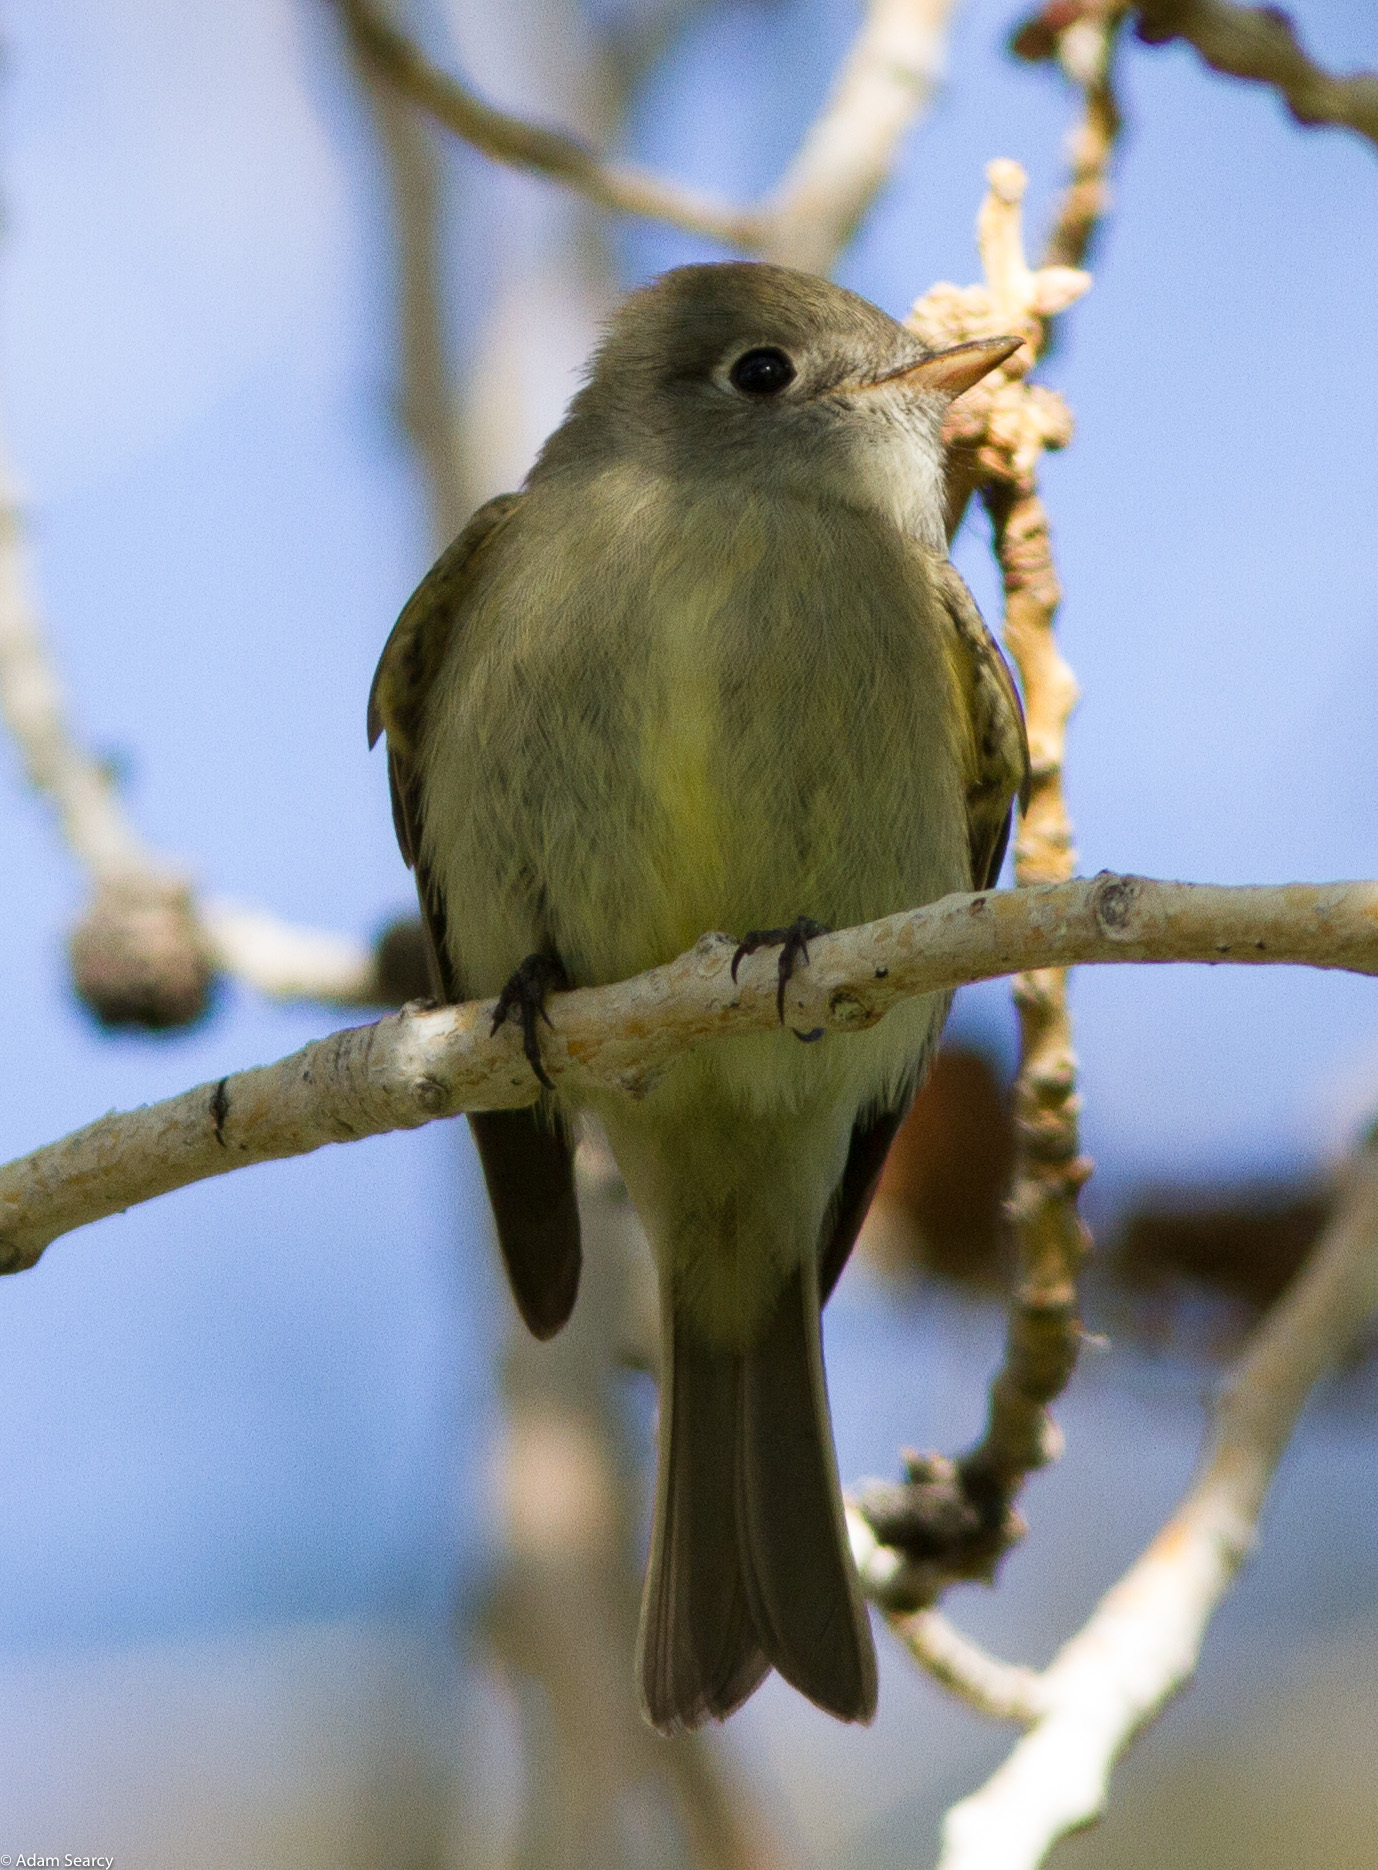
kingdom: Animalia
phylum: Chordata
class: Aves
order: Passeriformes
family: Tyrannidae
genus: Empidonax
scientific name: Empidonax hammondii
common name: Hammond's flycatcher
